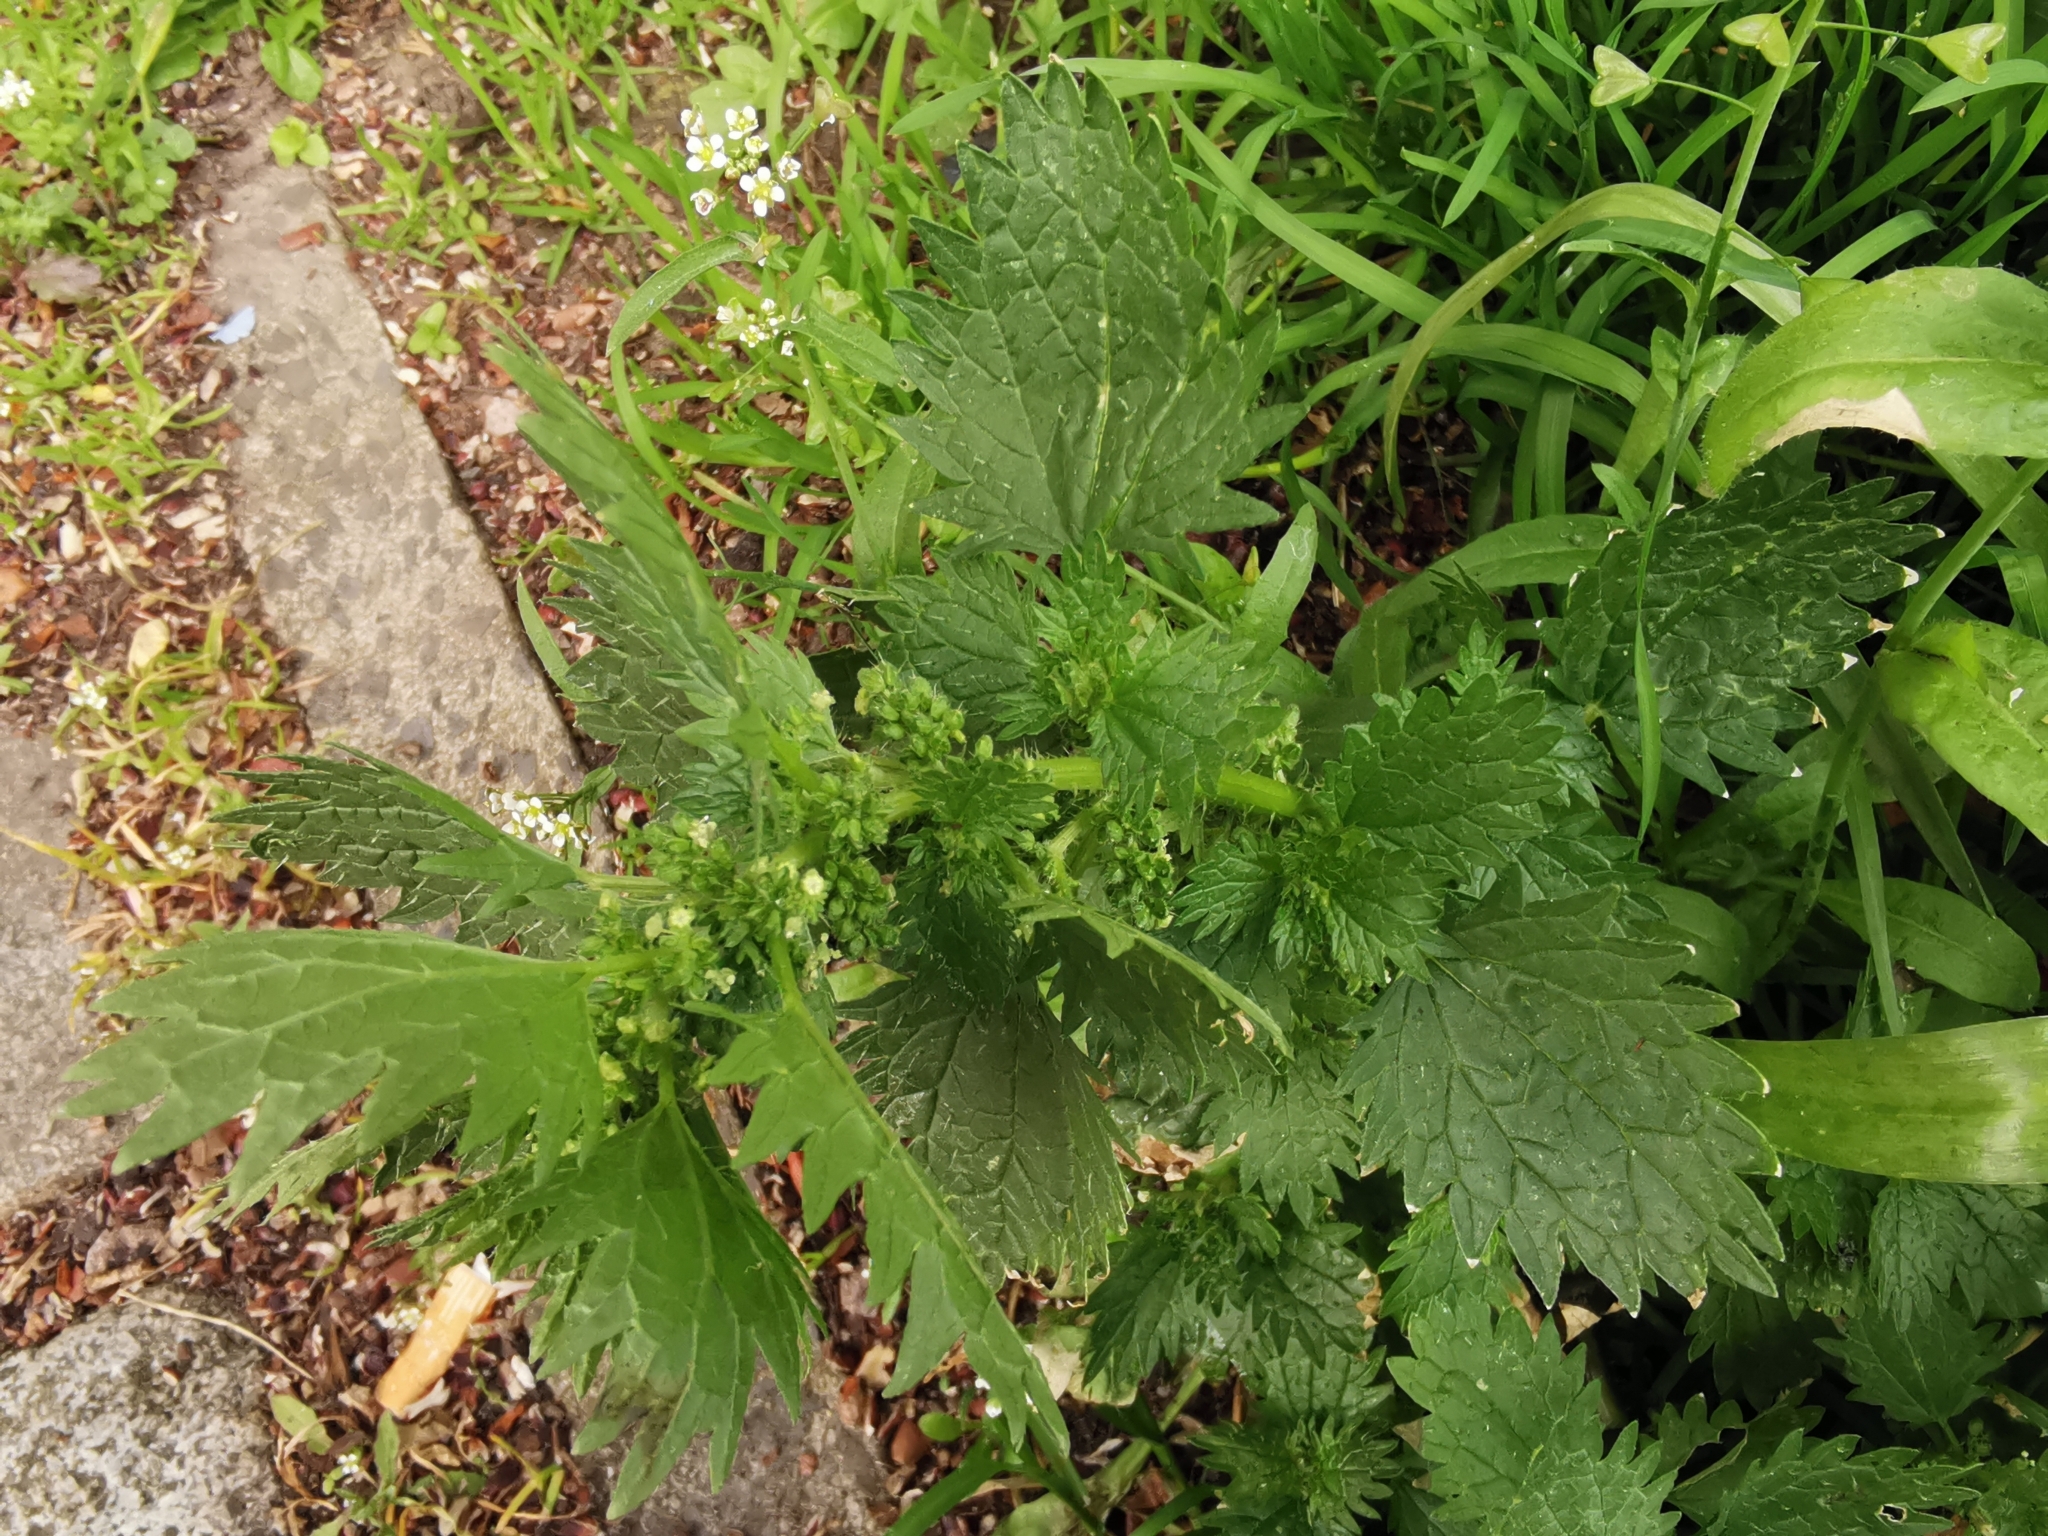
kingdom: Plantae
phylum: Tracheophyta
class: Magnoliopsida
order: Rosales
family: Urticaceae
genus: Urtica
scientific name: Urtica urens
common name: Dwarf nettle
